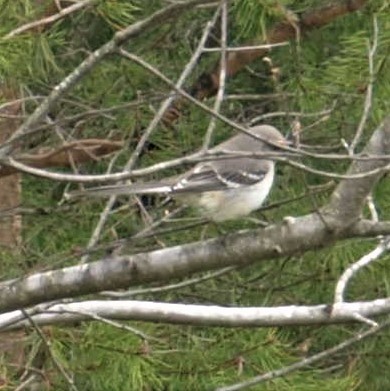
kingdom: Animalia
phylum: Chordata
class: Aves
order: Passeriformes
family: Mimidae
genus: Mimus
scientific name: Mimus polyglottos
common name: Northern mockingbird
